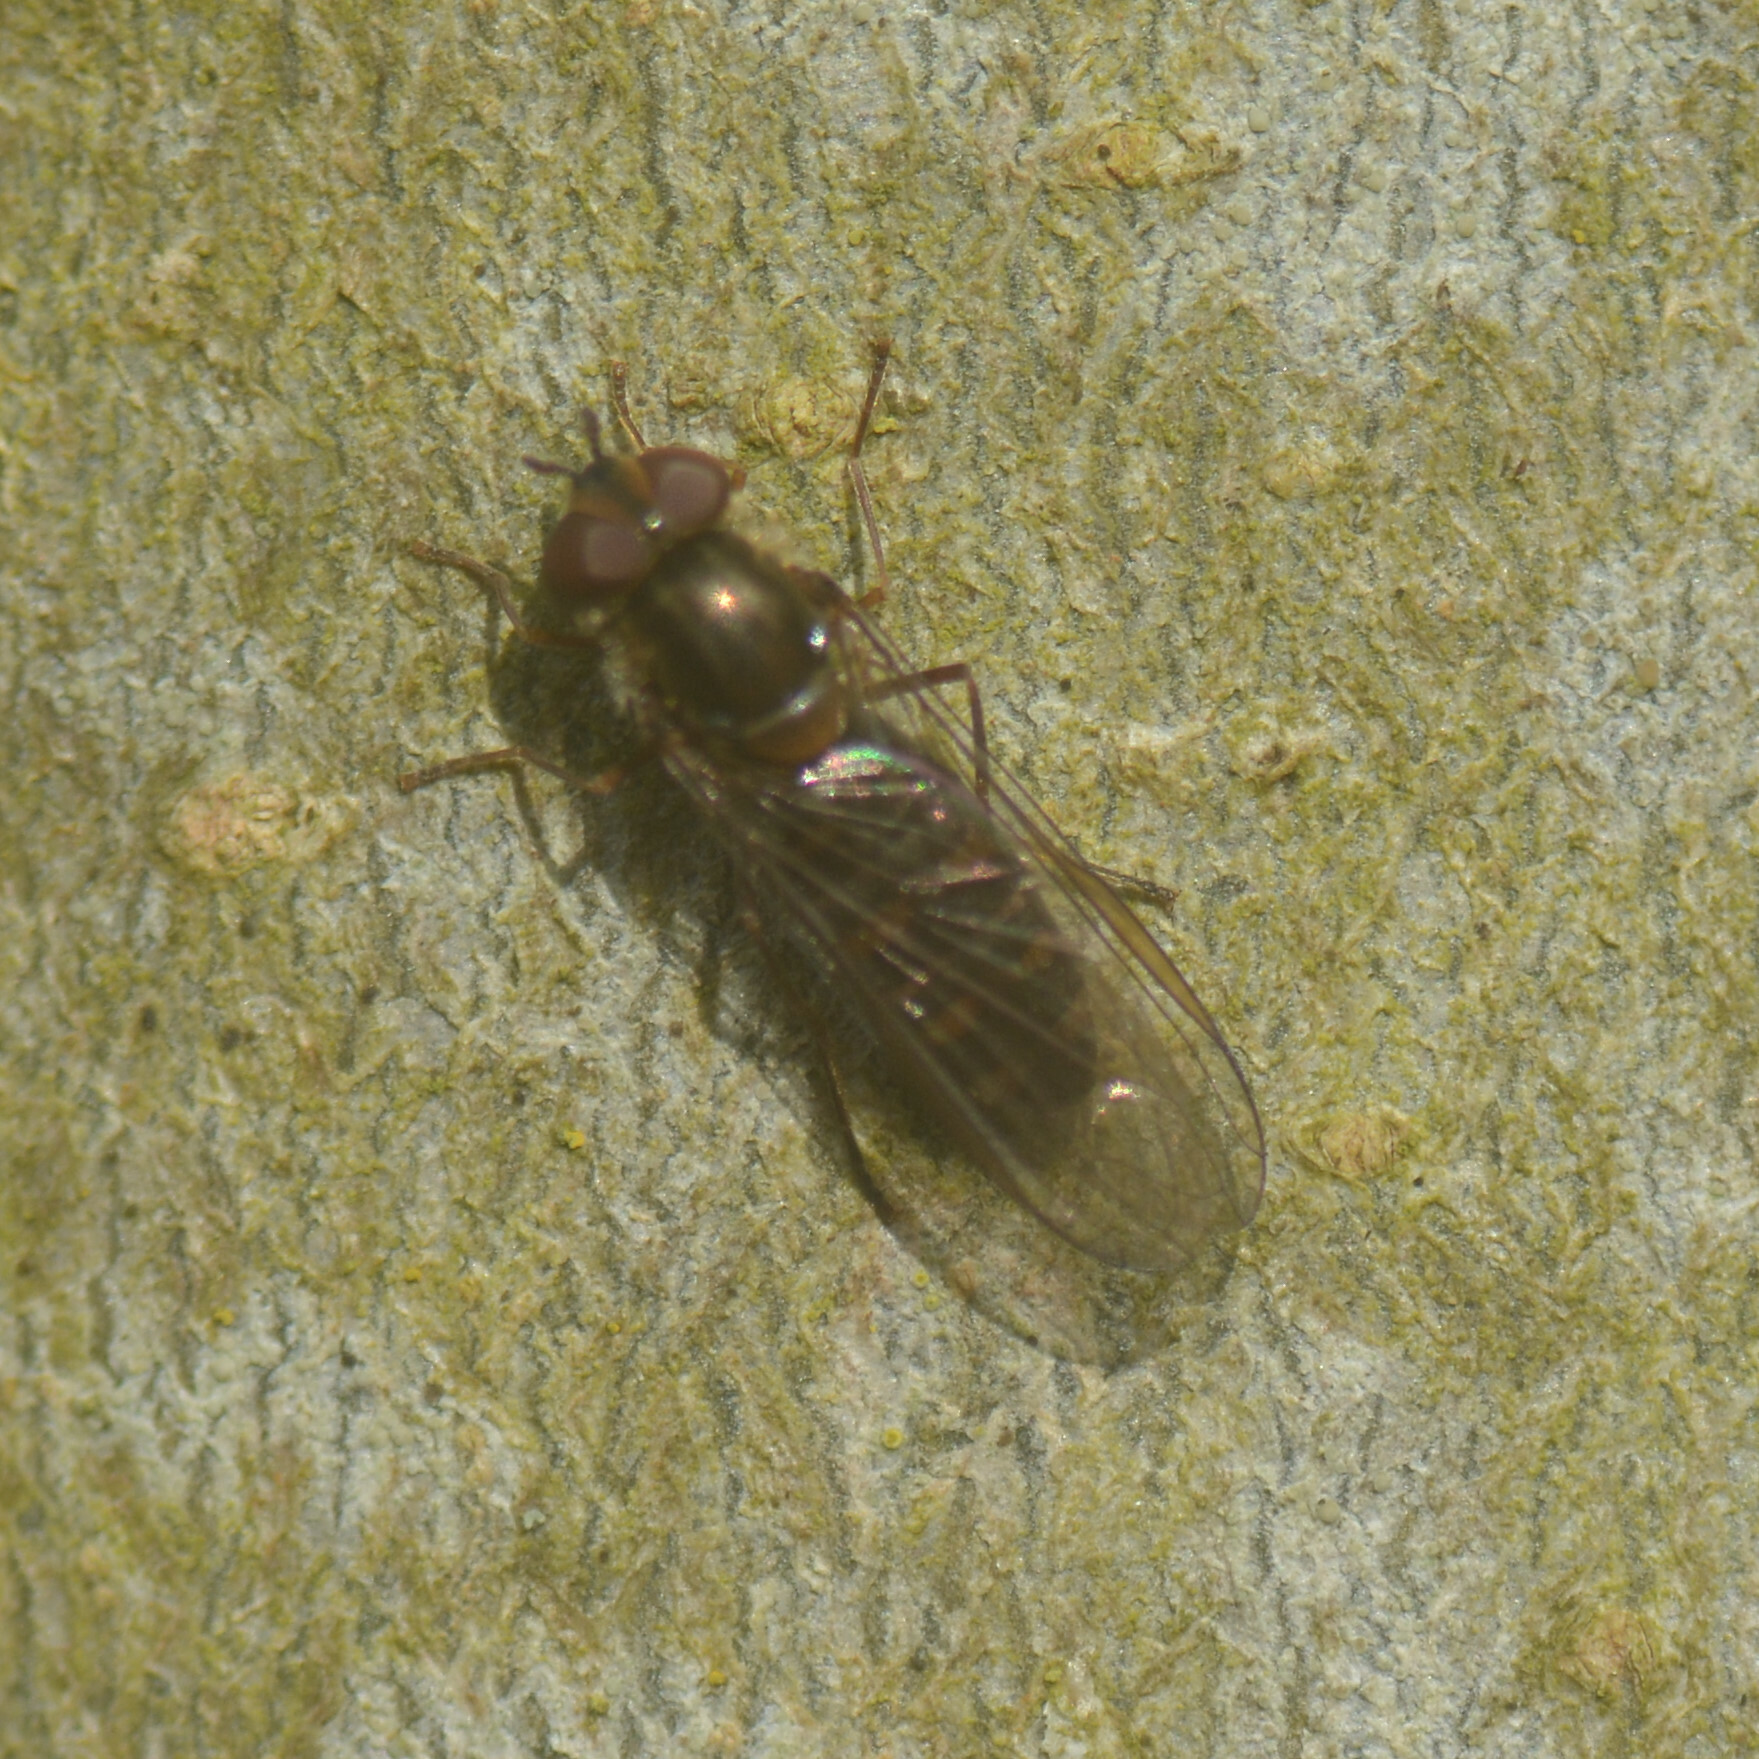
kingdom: Animalia
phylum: Arthropoda
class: Insecta
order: Diptera
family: Syrphidae
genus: Episyrphus
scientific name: Episyrphus balteatus
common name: Marmalade hoverfly
